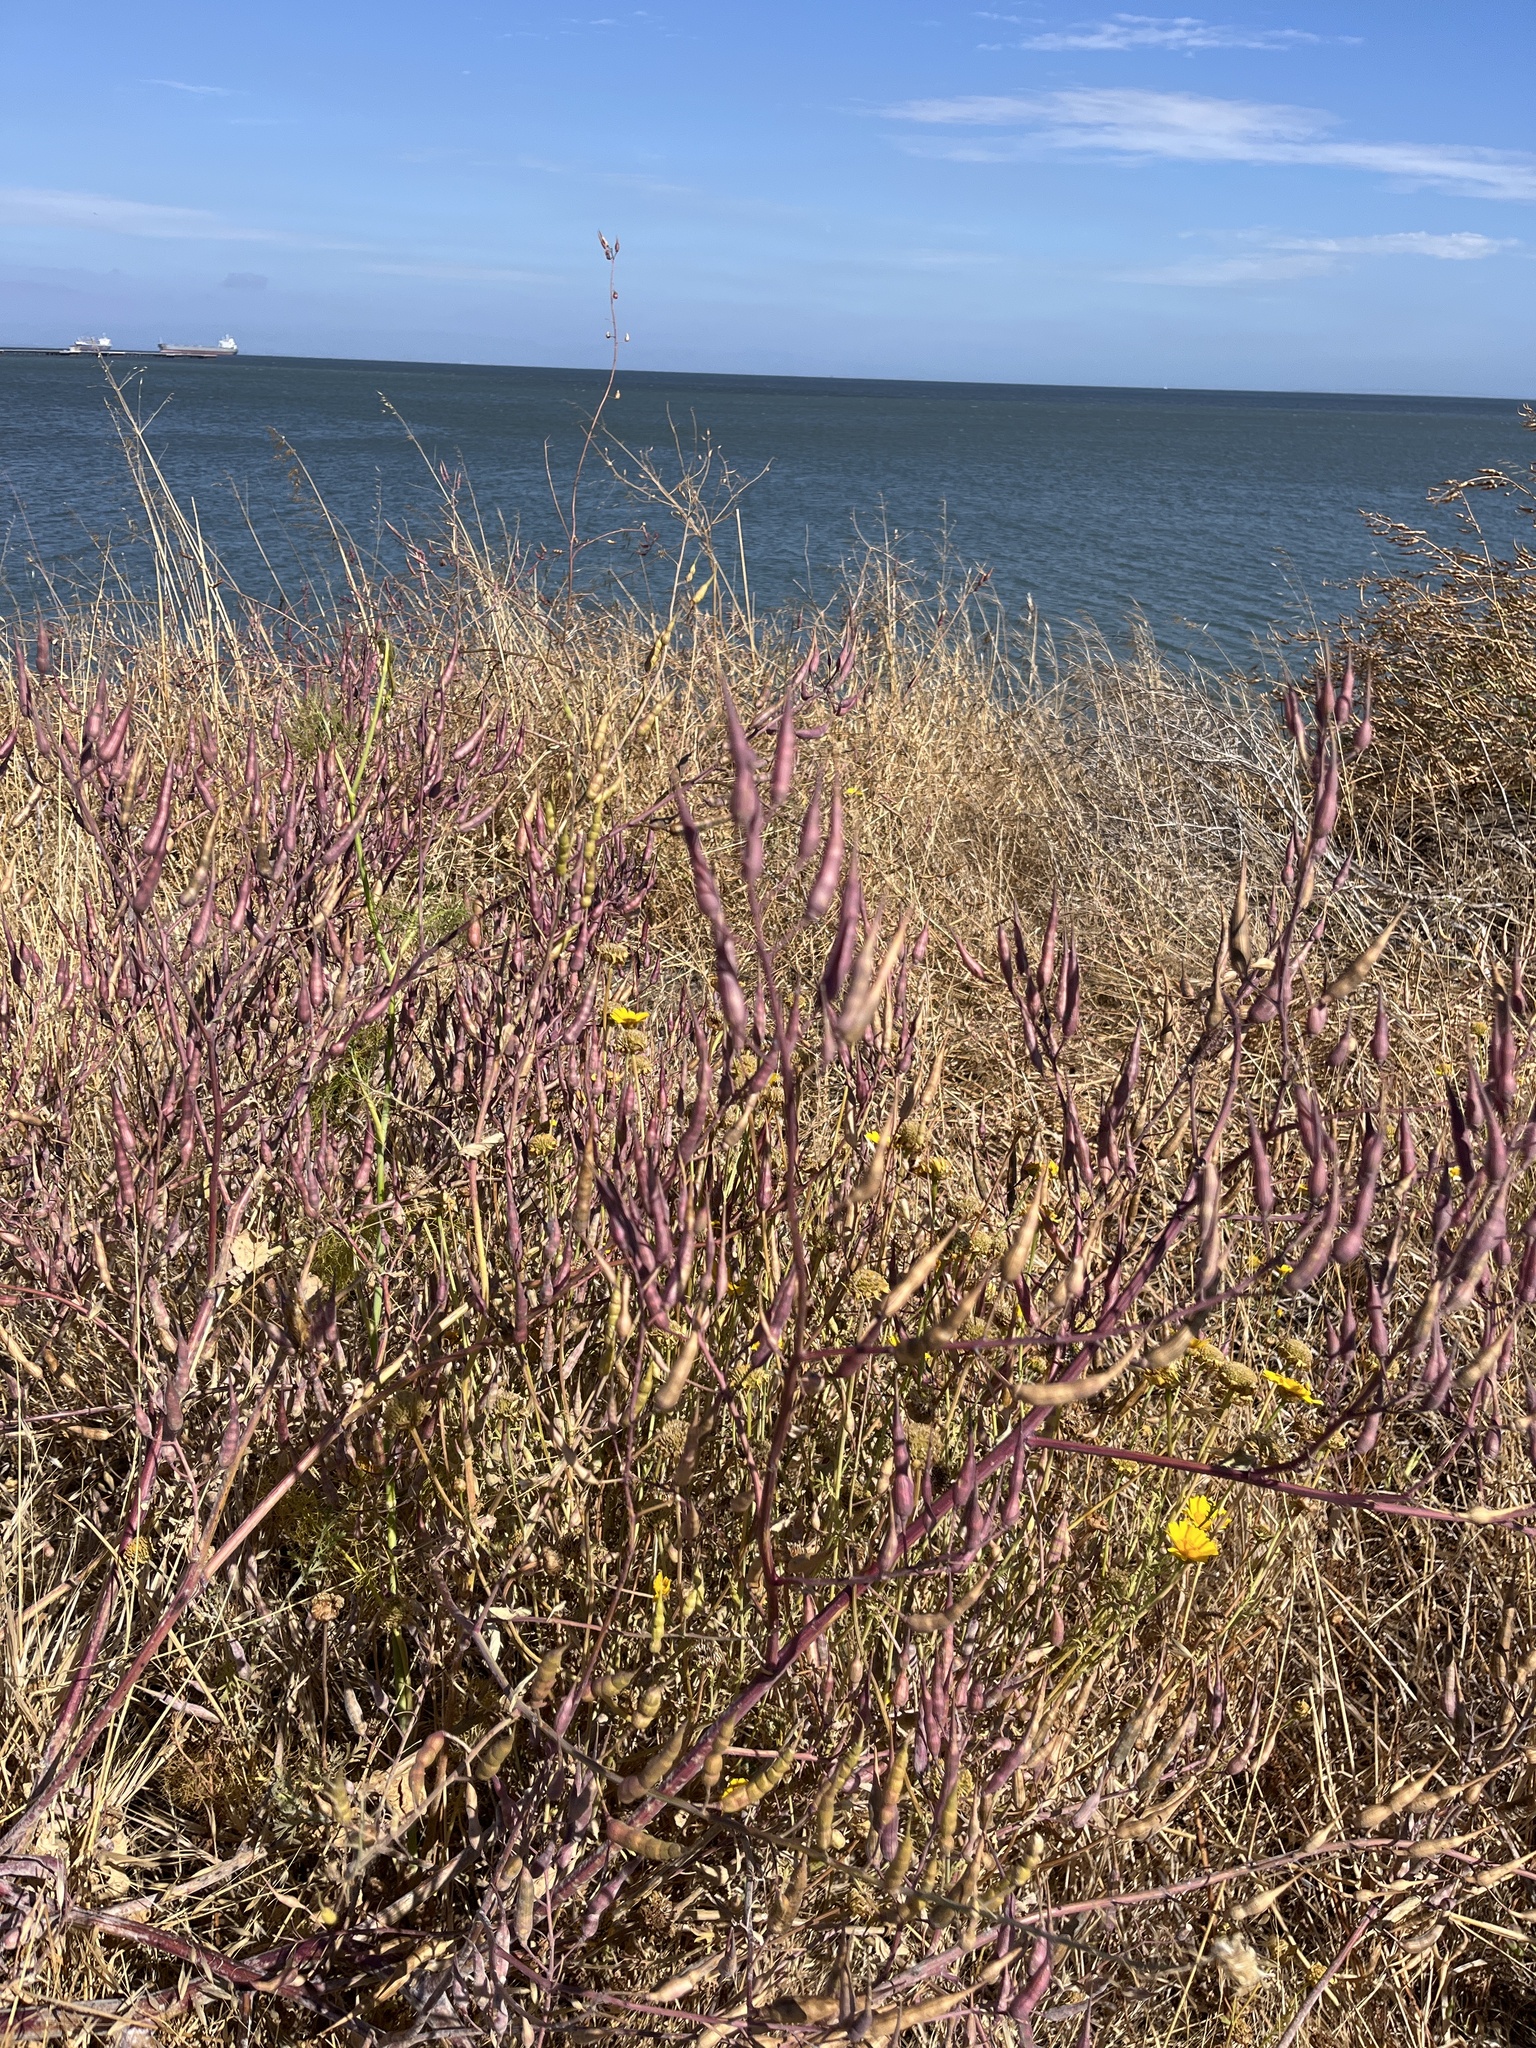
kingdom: Plantae
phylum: Tracheophyta
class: Magnoliopsida
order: Brassicales
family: Brassicaceae
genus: Raphanus
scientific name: Raphanus sativus
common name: Cultivated radish
